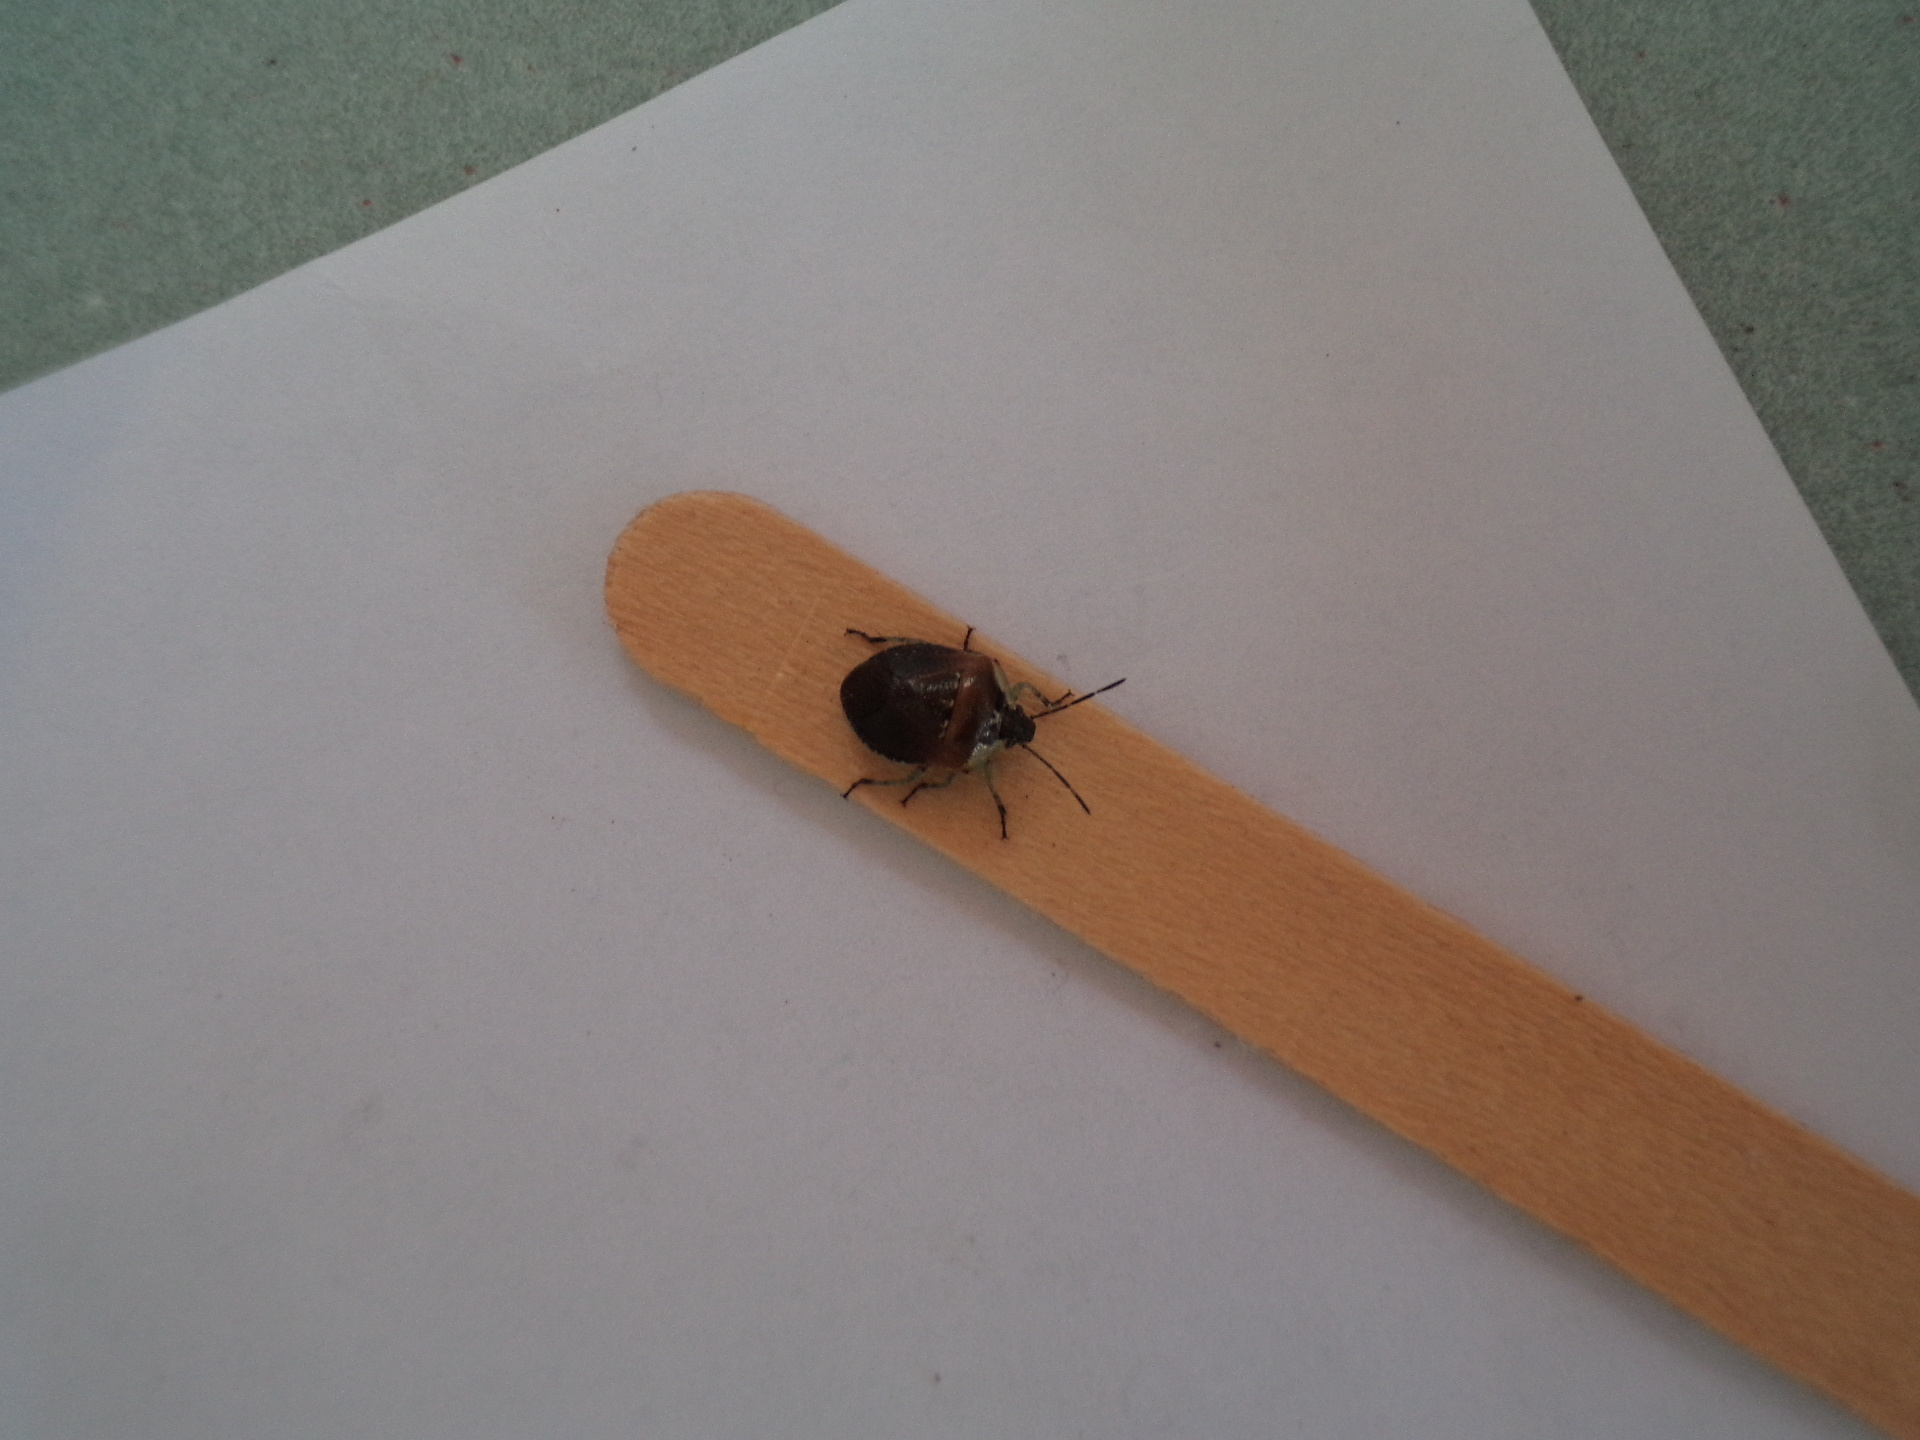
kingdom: Animalia
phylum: Arthropoda
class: Insecta
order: Hemiptera
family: Pentatomidae
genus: Monteithiella
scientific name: Monteithiella
